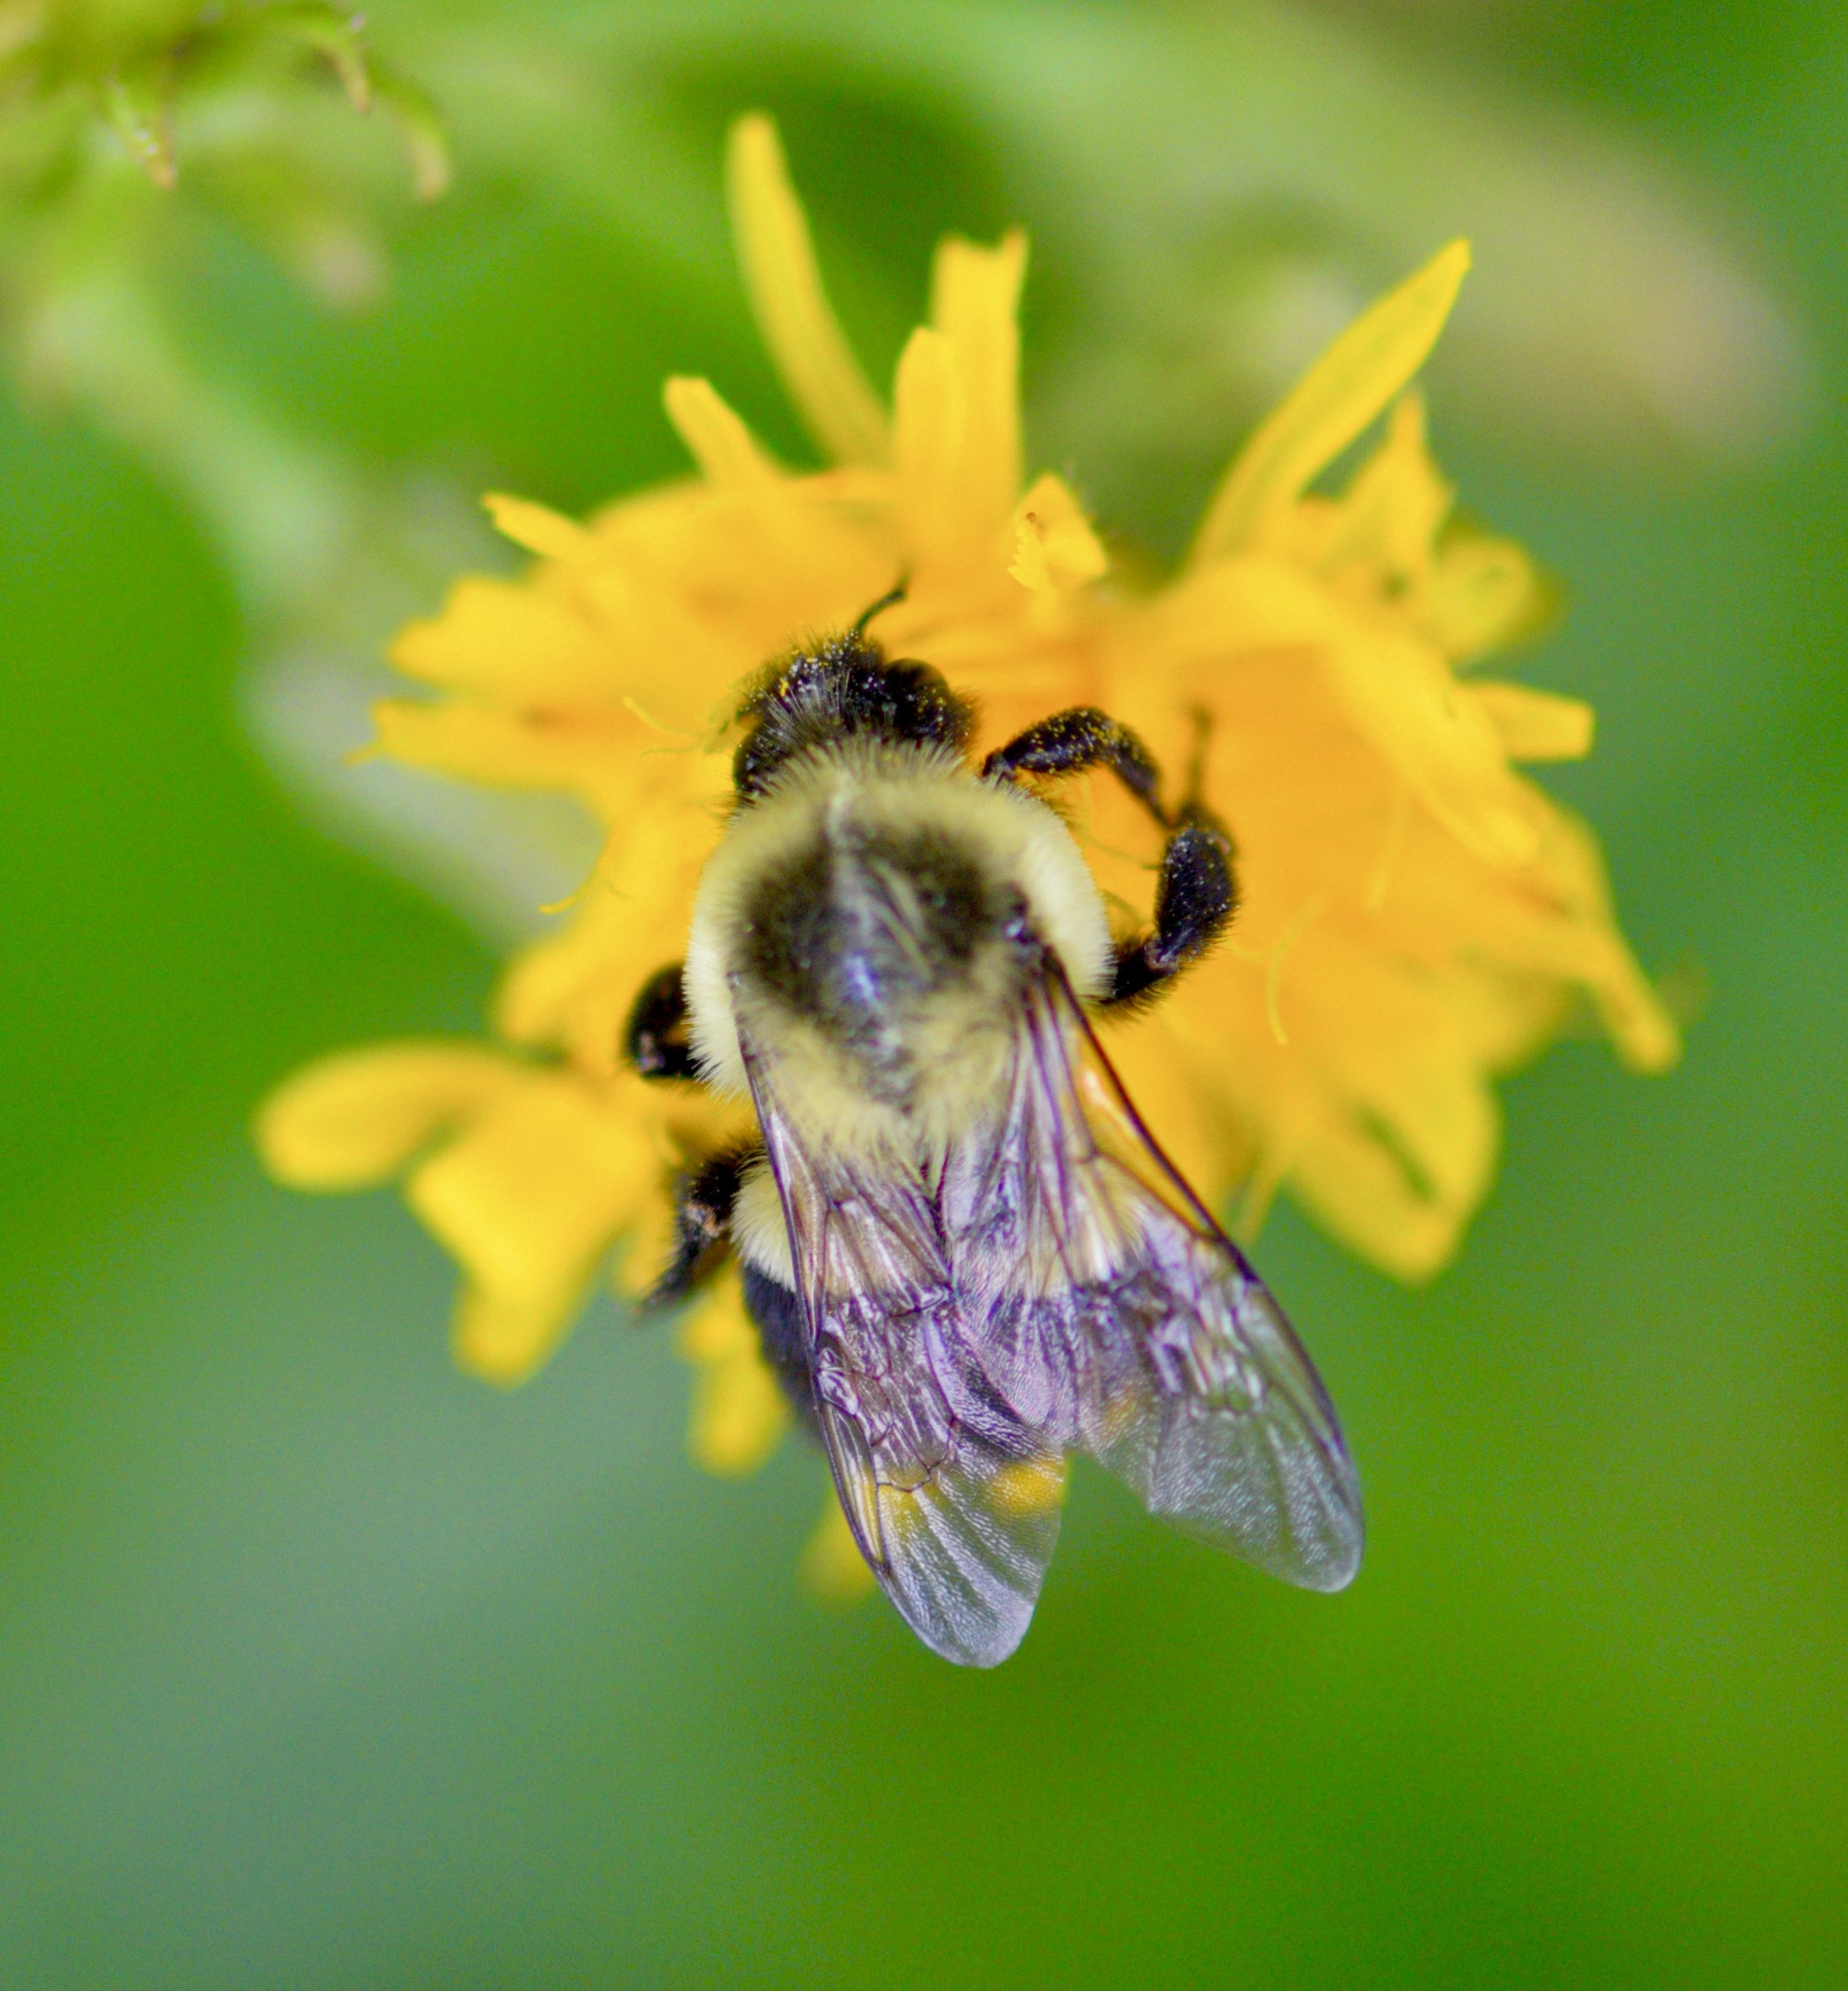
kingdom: Animalia
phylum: Arthropoda
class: Insecta
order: Hymenoptera
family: Apidae
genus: Bombus
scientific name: Bombus impatiens
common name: Common eastern bumble bee
